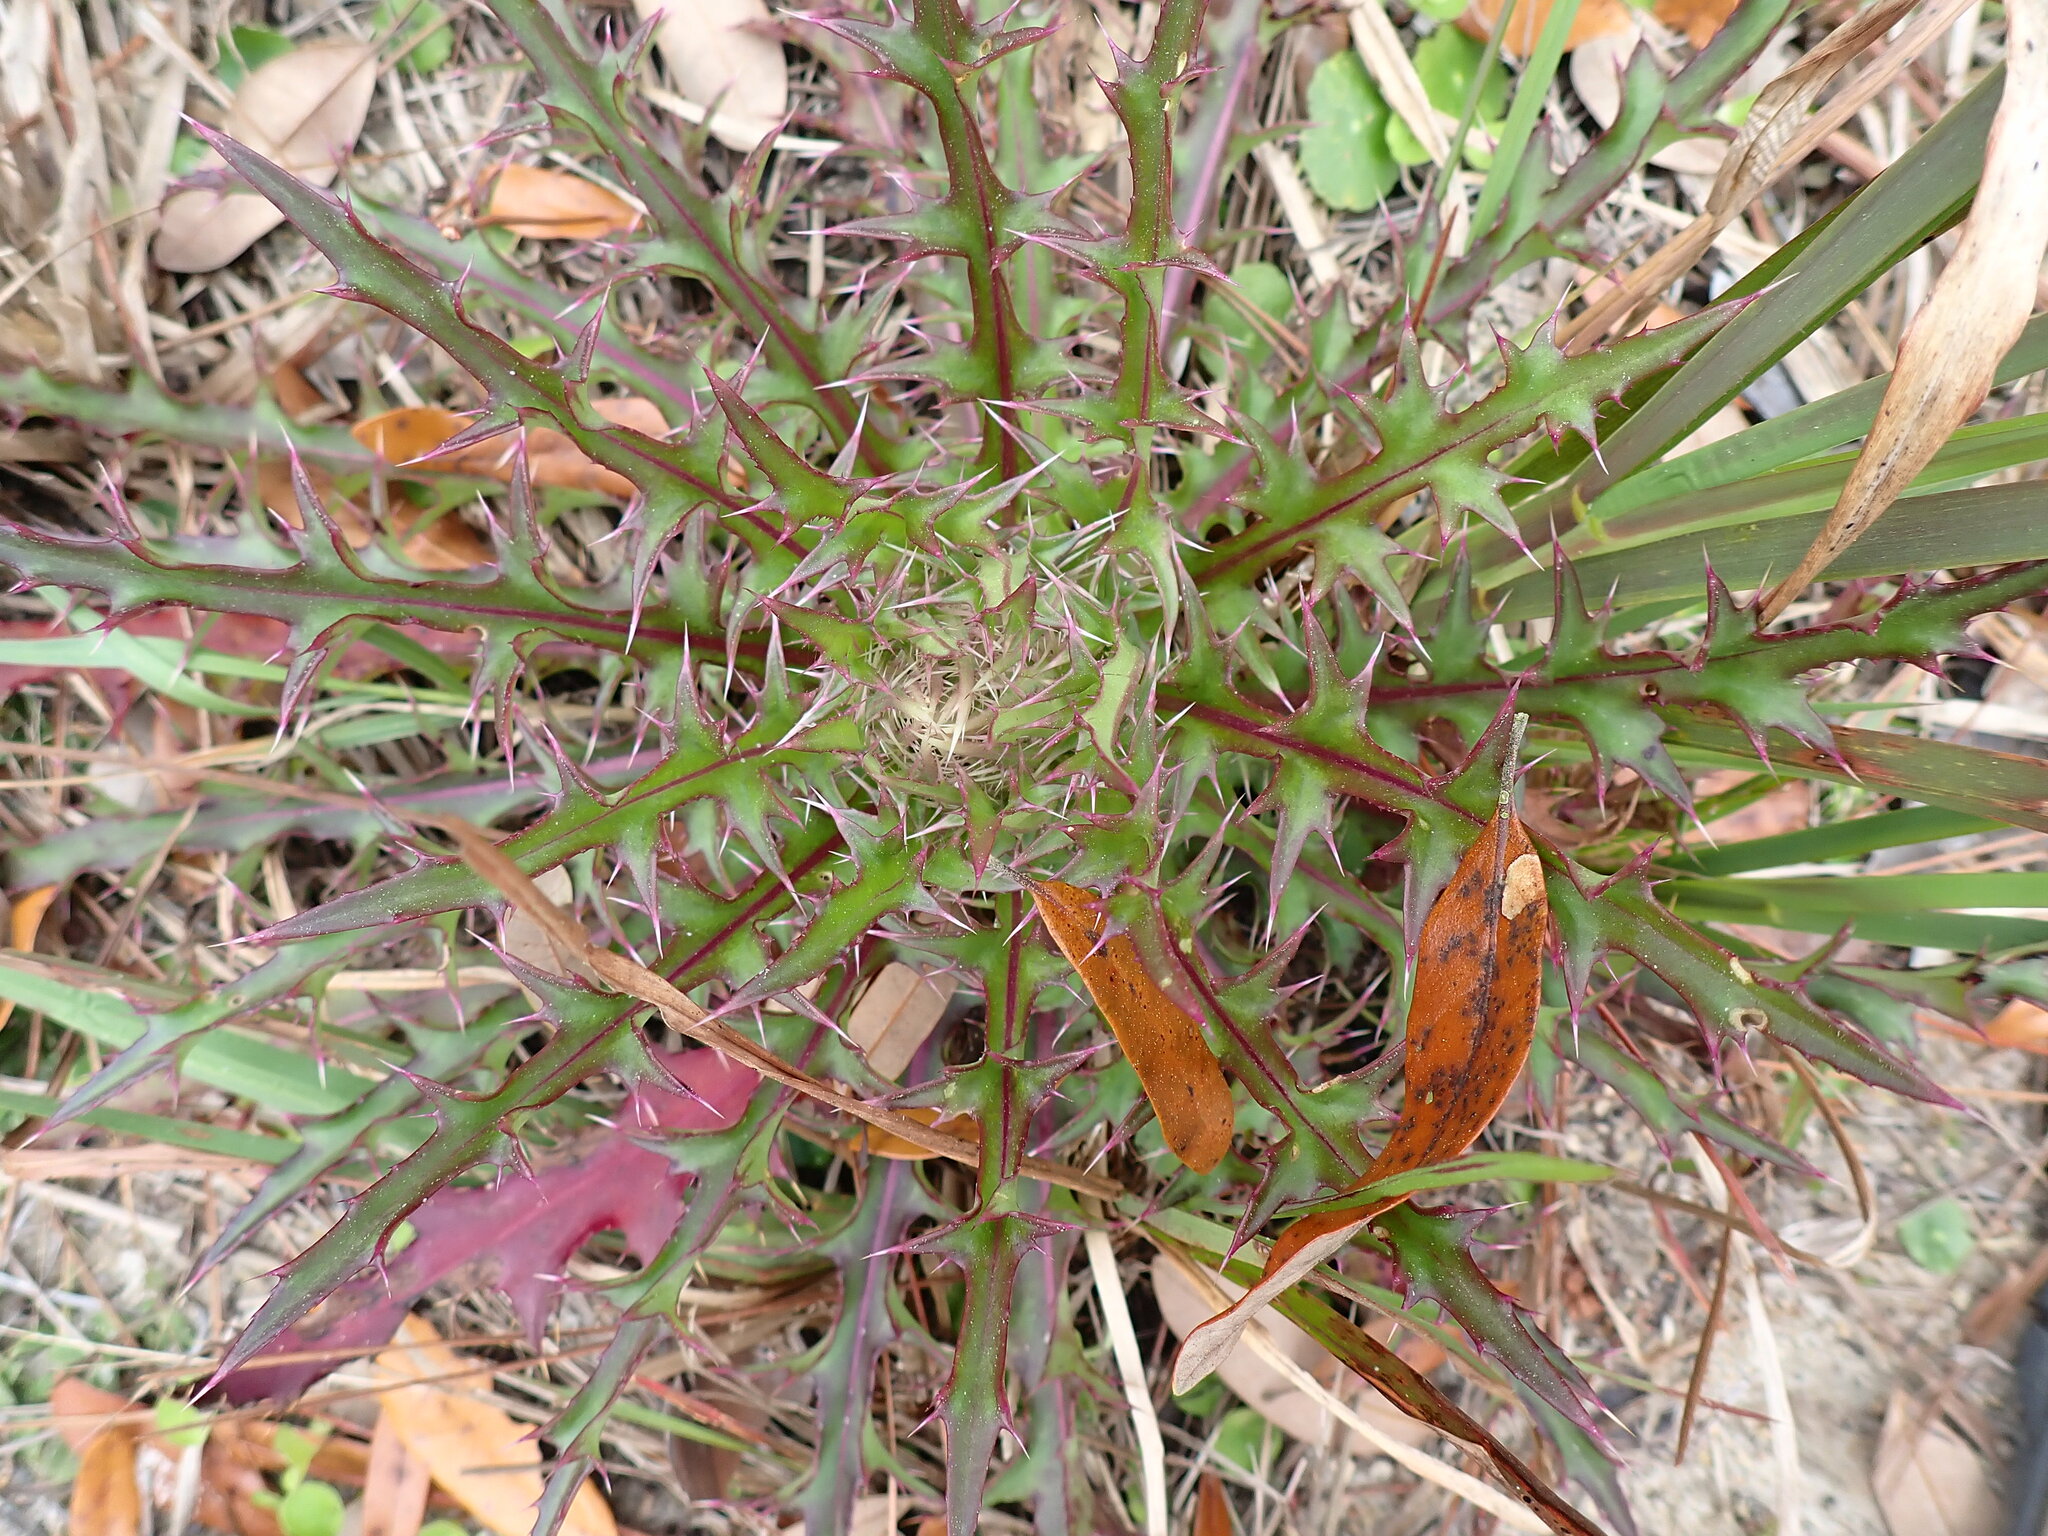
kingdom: Plantae
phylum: Tracheophyta
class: Magnoliopsida
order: Asterales
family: Asteraceae
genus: Cirsium
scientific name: Cirsium horridulum
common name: Bristly thistle
